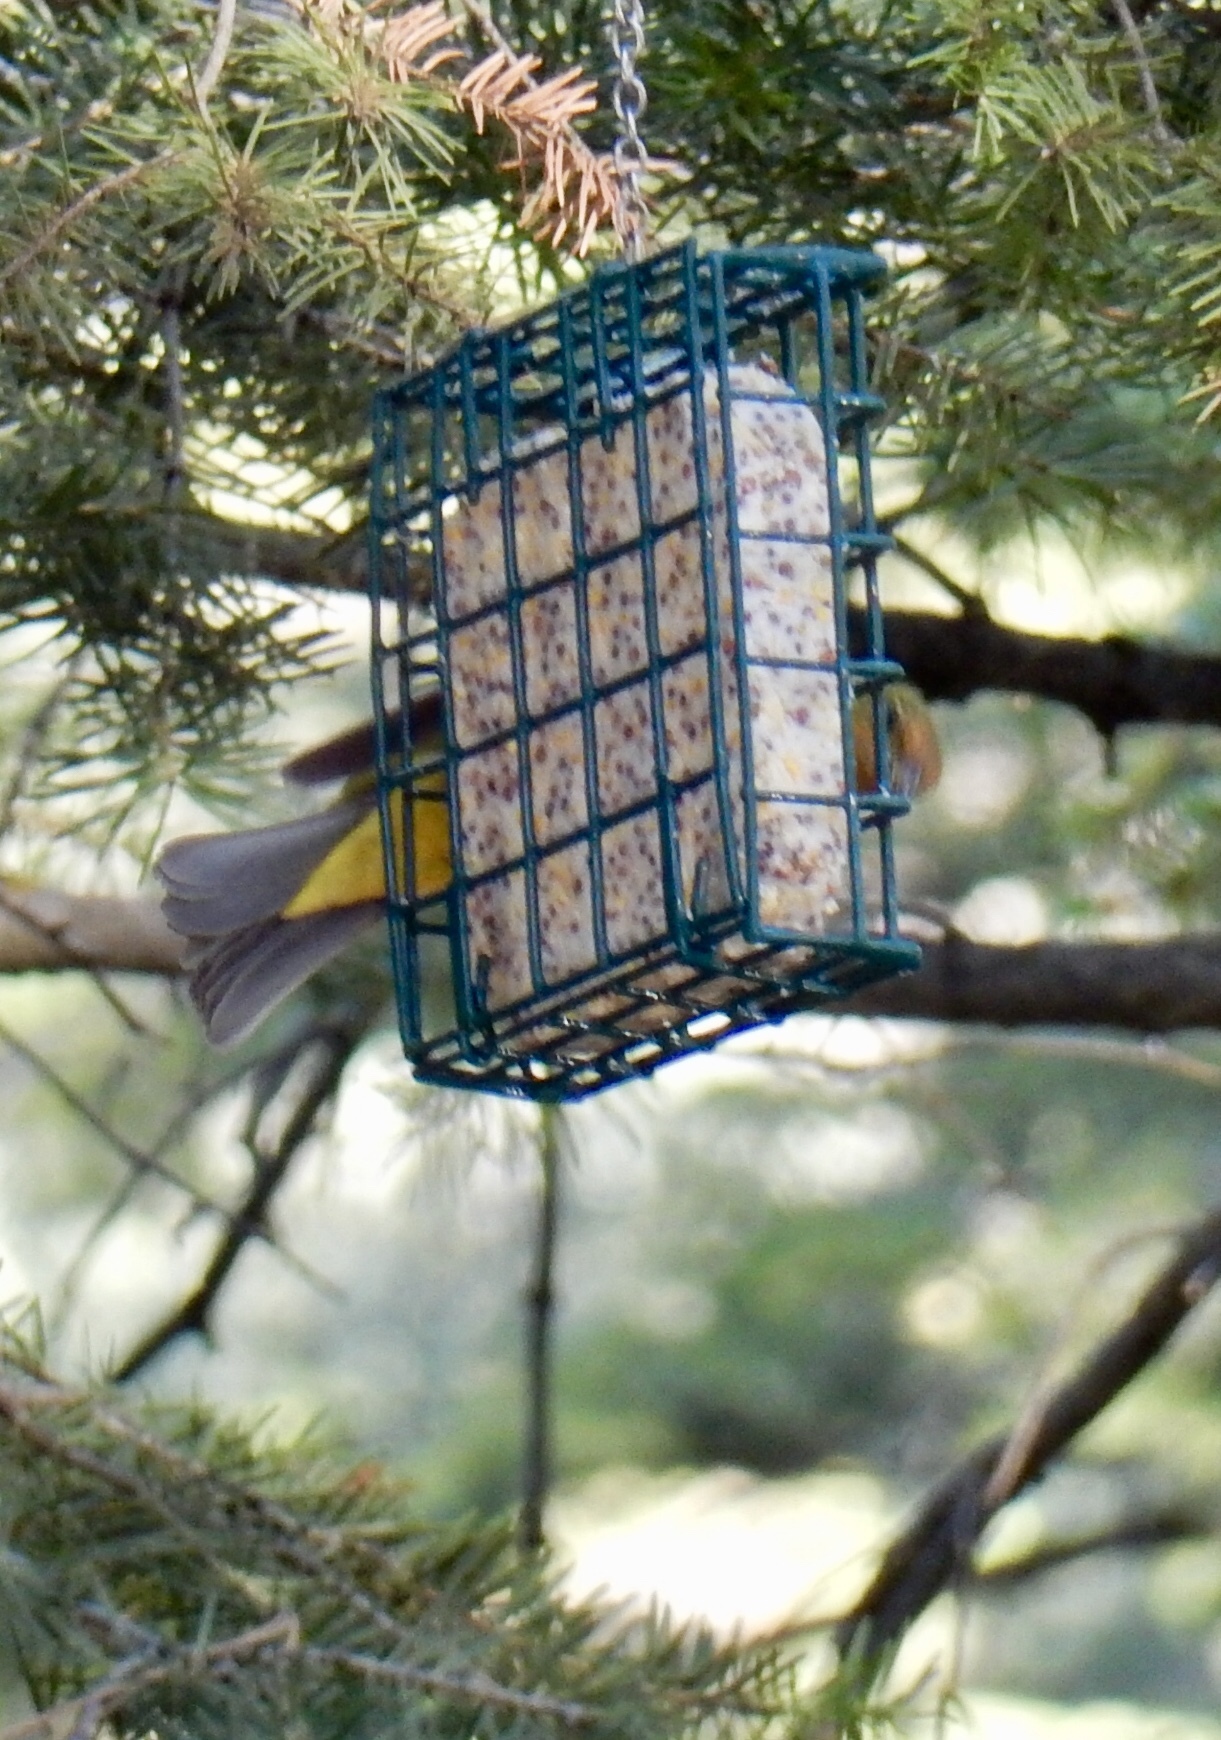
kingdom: Animalia
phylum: Chordata
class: Aves
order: Passeriformes
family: Cardinalidae
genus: Piranga
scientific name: Piranga ludoviciana
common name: Western tanager
